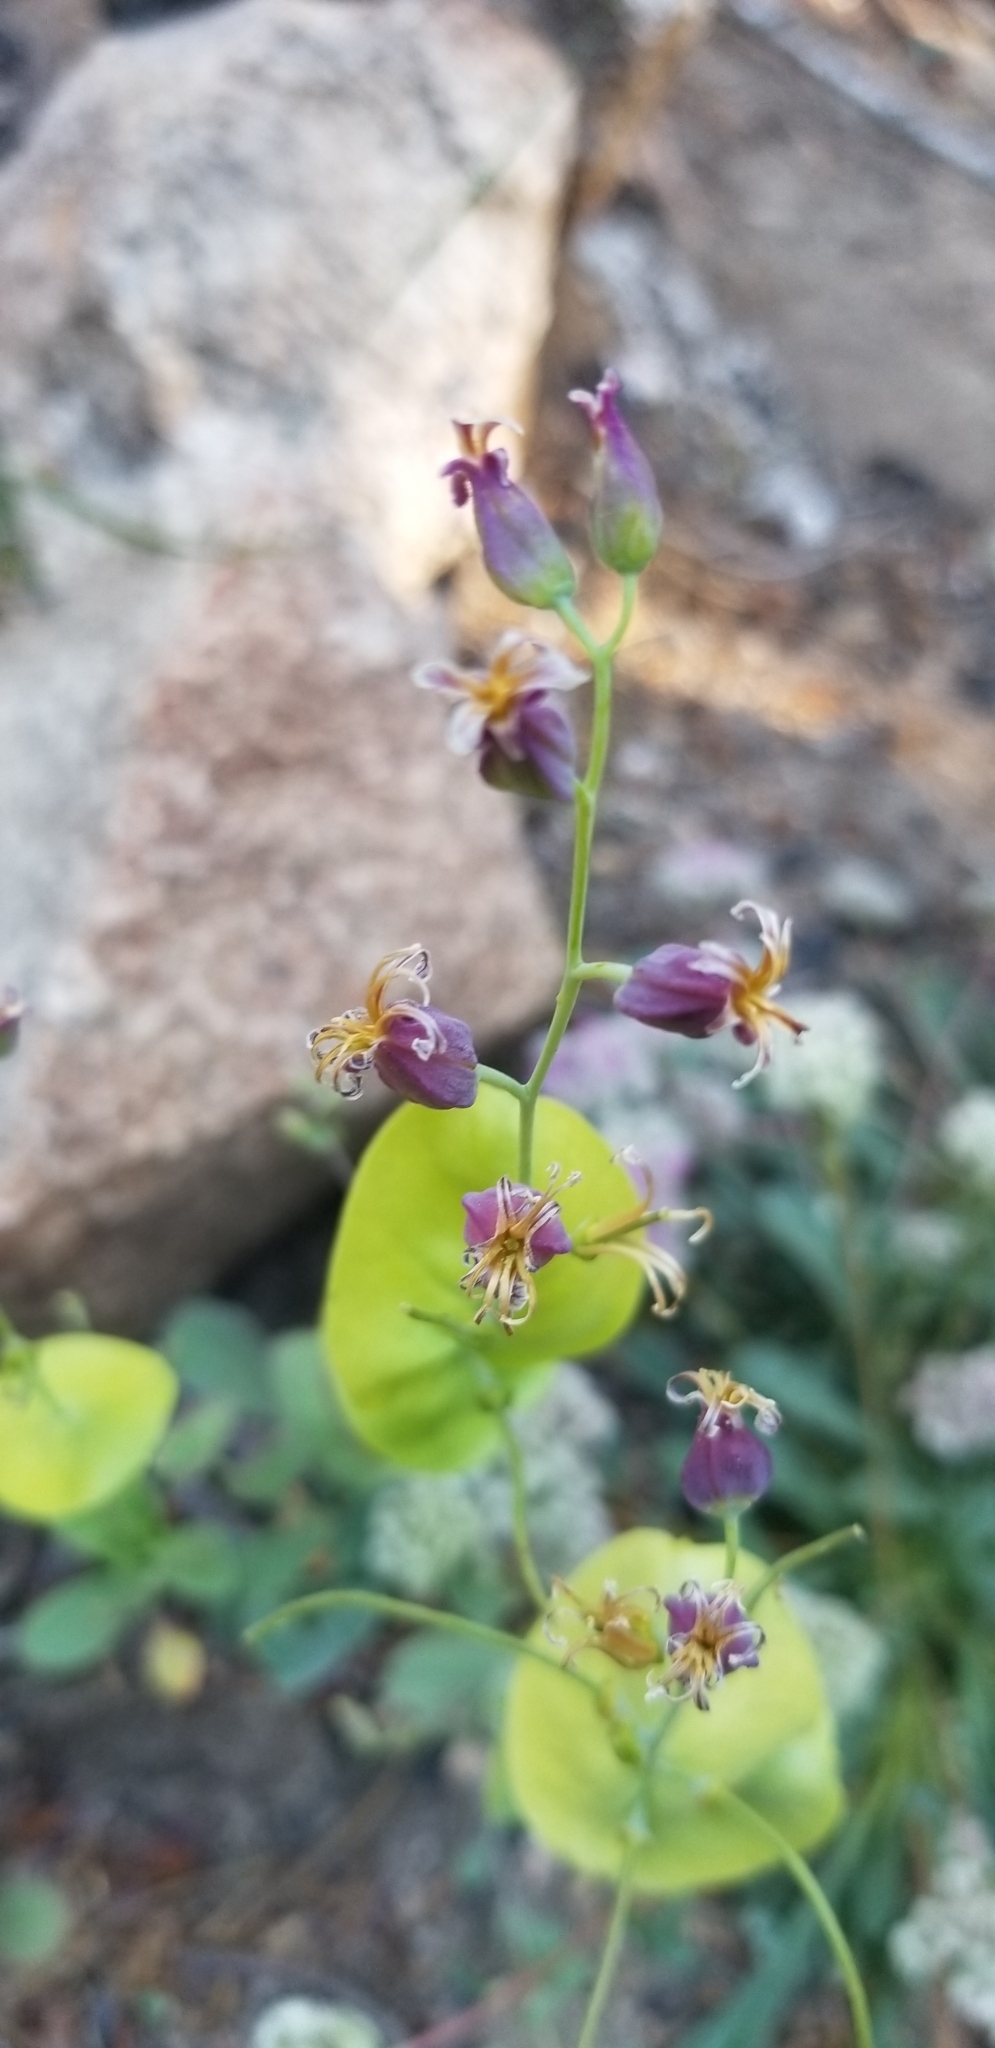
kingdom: Plantae
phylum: Tracheophyta
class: Magnoliopsida
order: Brassicales
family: Brassicaceae
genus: Streptanthus
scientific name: Streptanthus tortuosus
